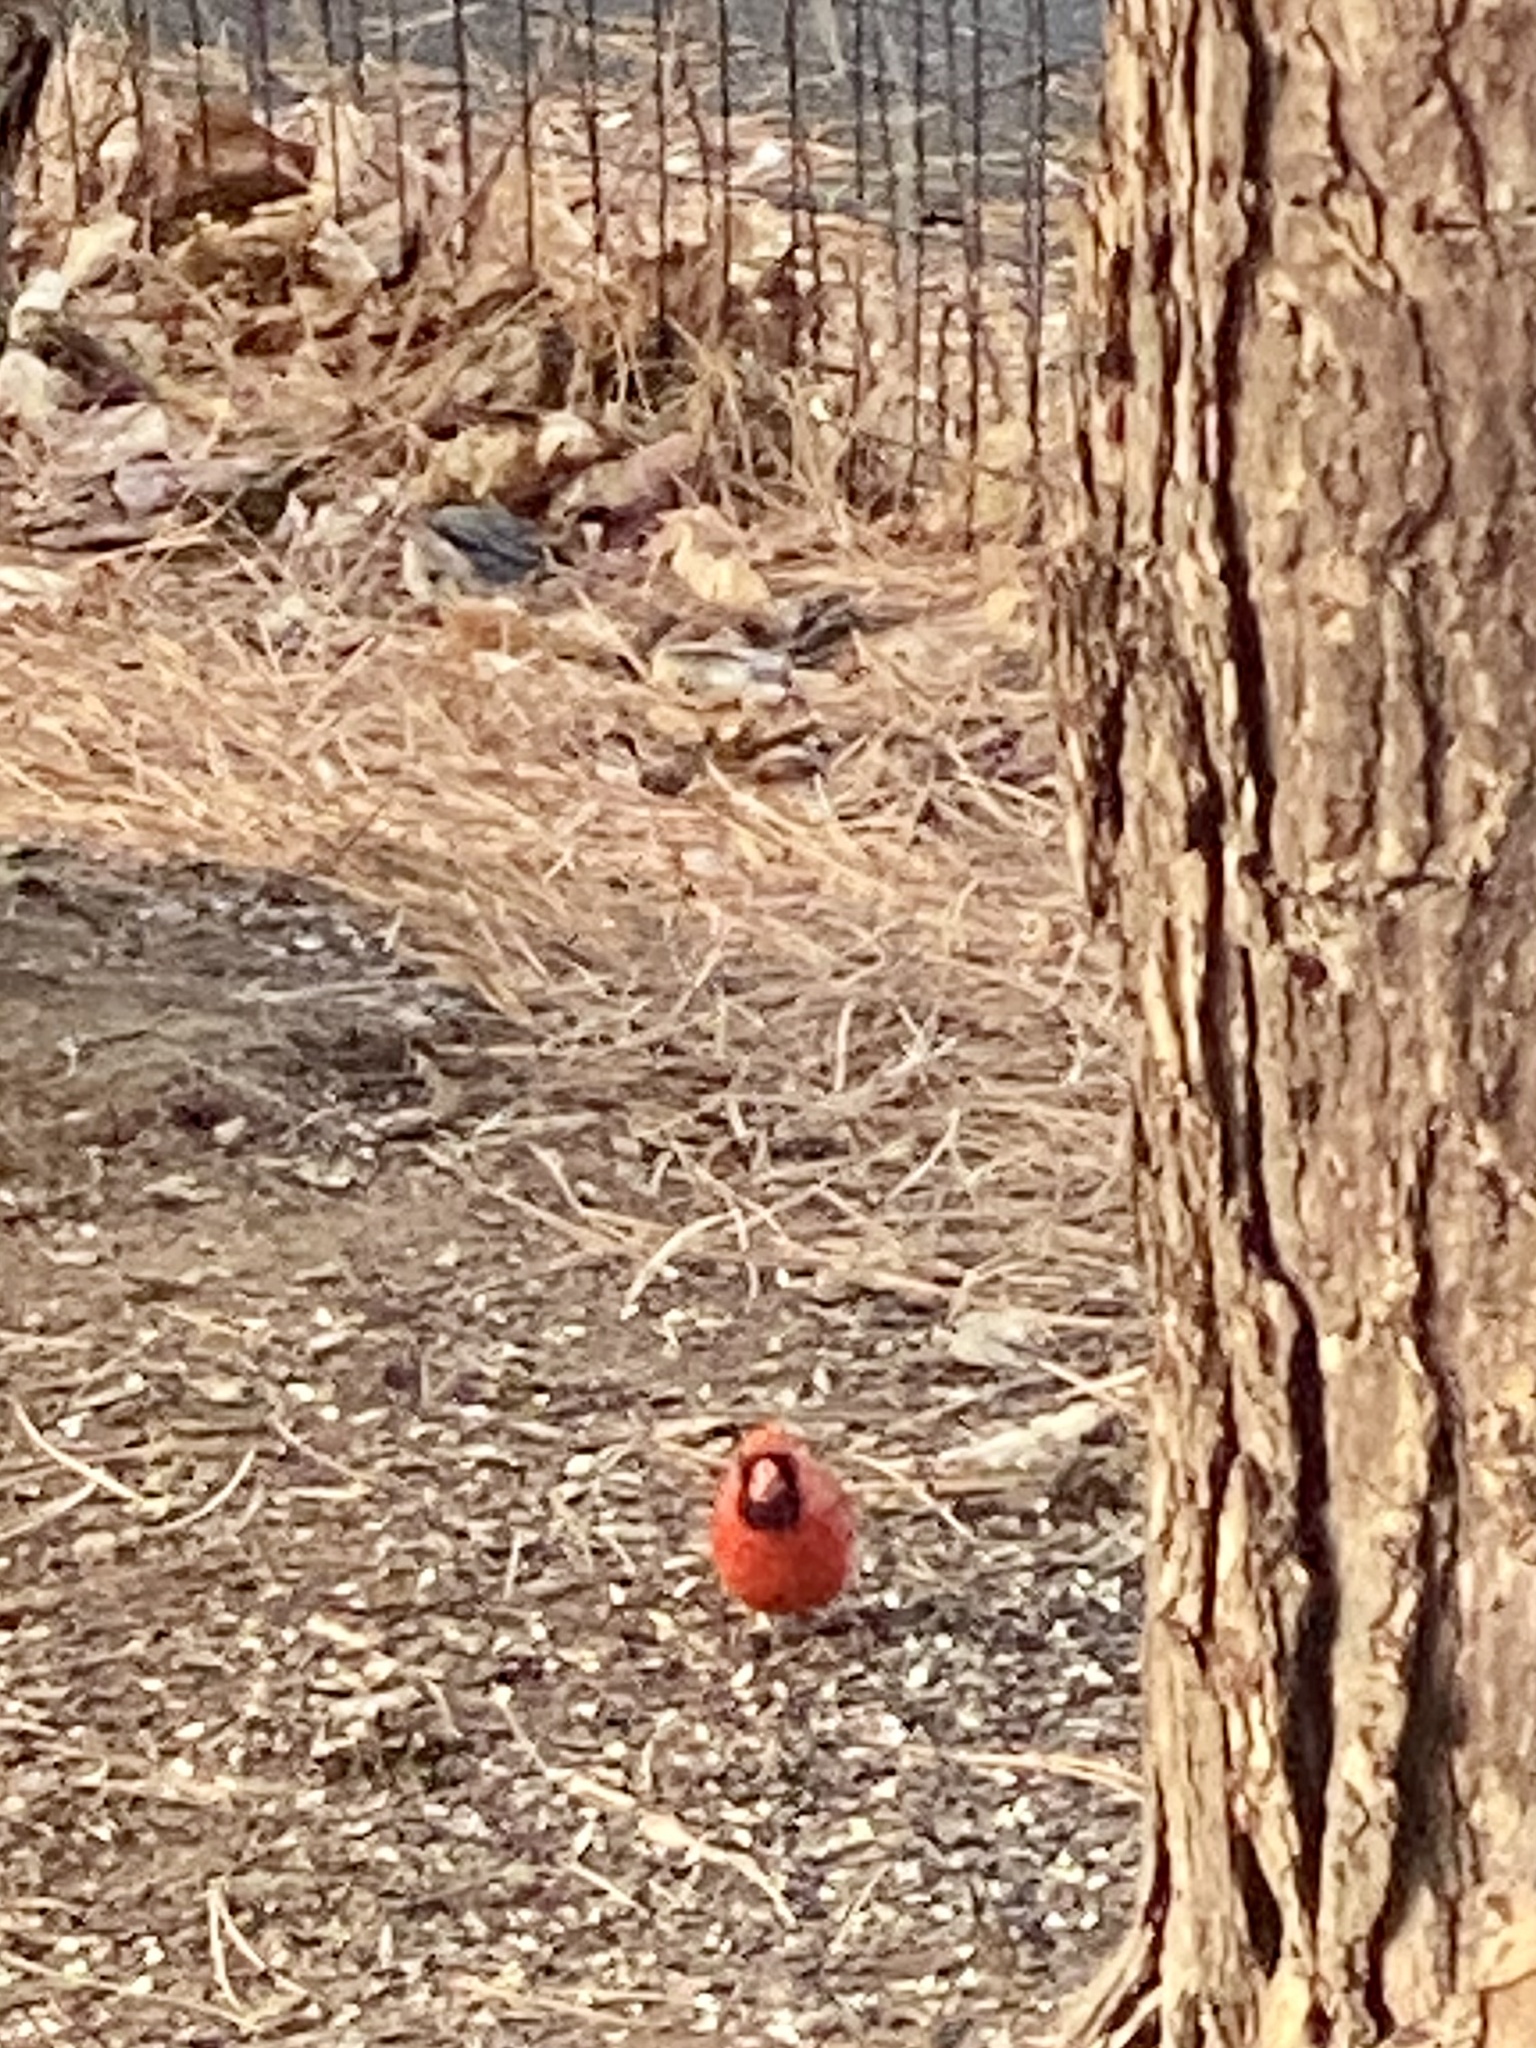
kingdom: Animalia
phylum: Chordata
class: Aves
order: Passeriformes
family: Cardinalidae
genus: Cardinalis
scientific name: Cardinalis cardinalis
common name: Northern cardinal
